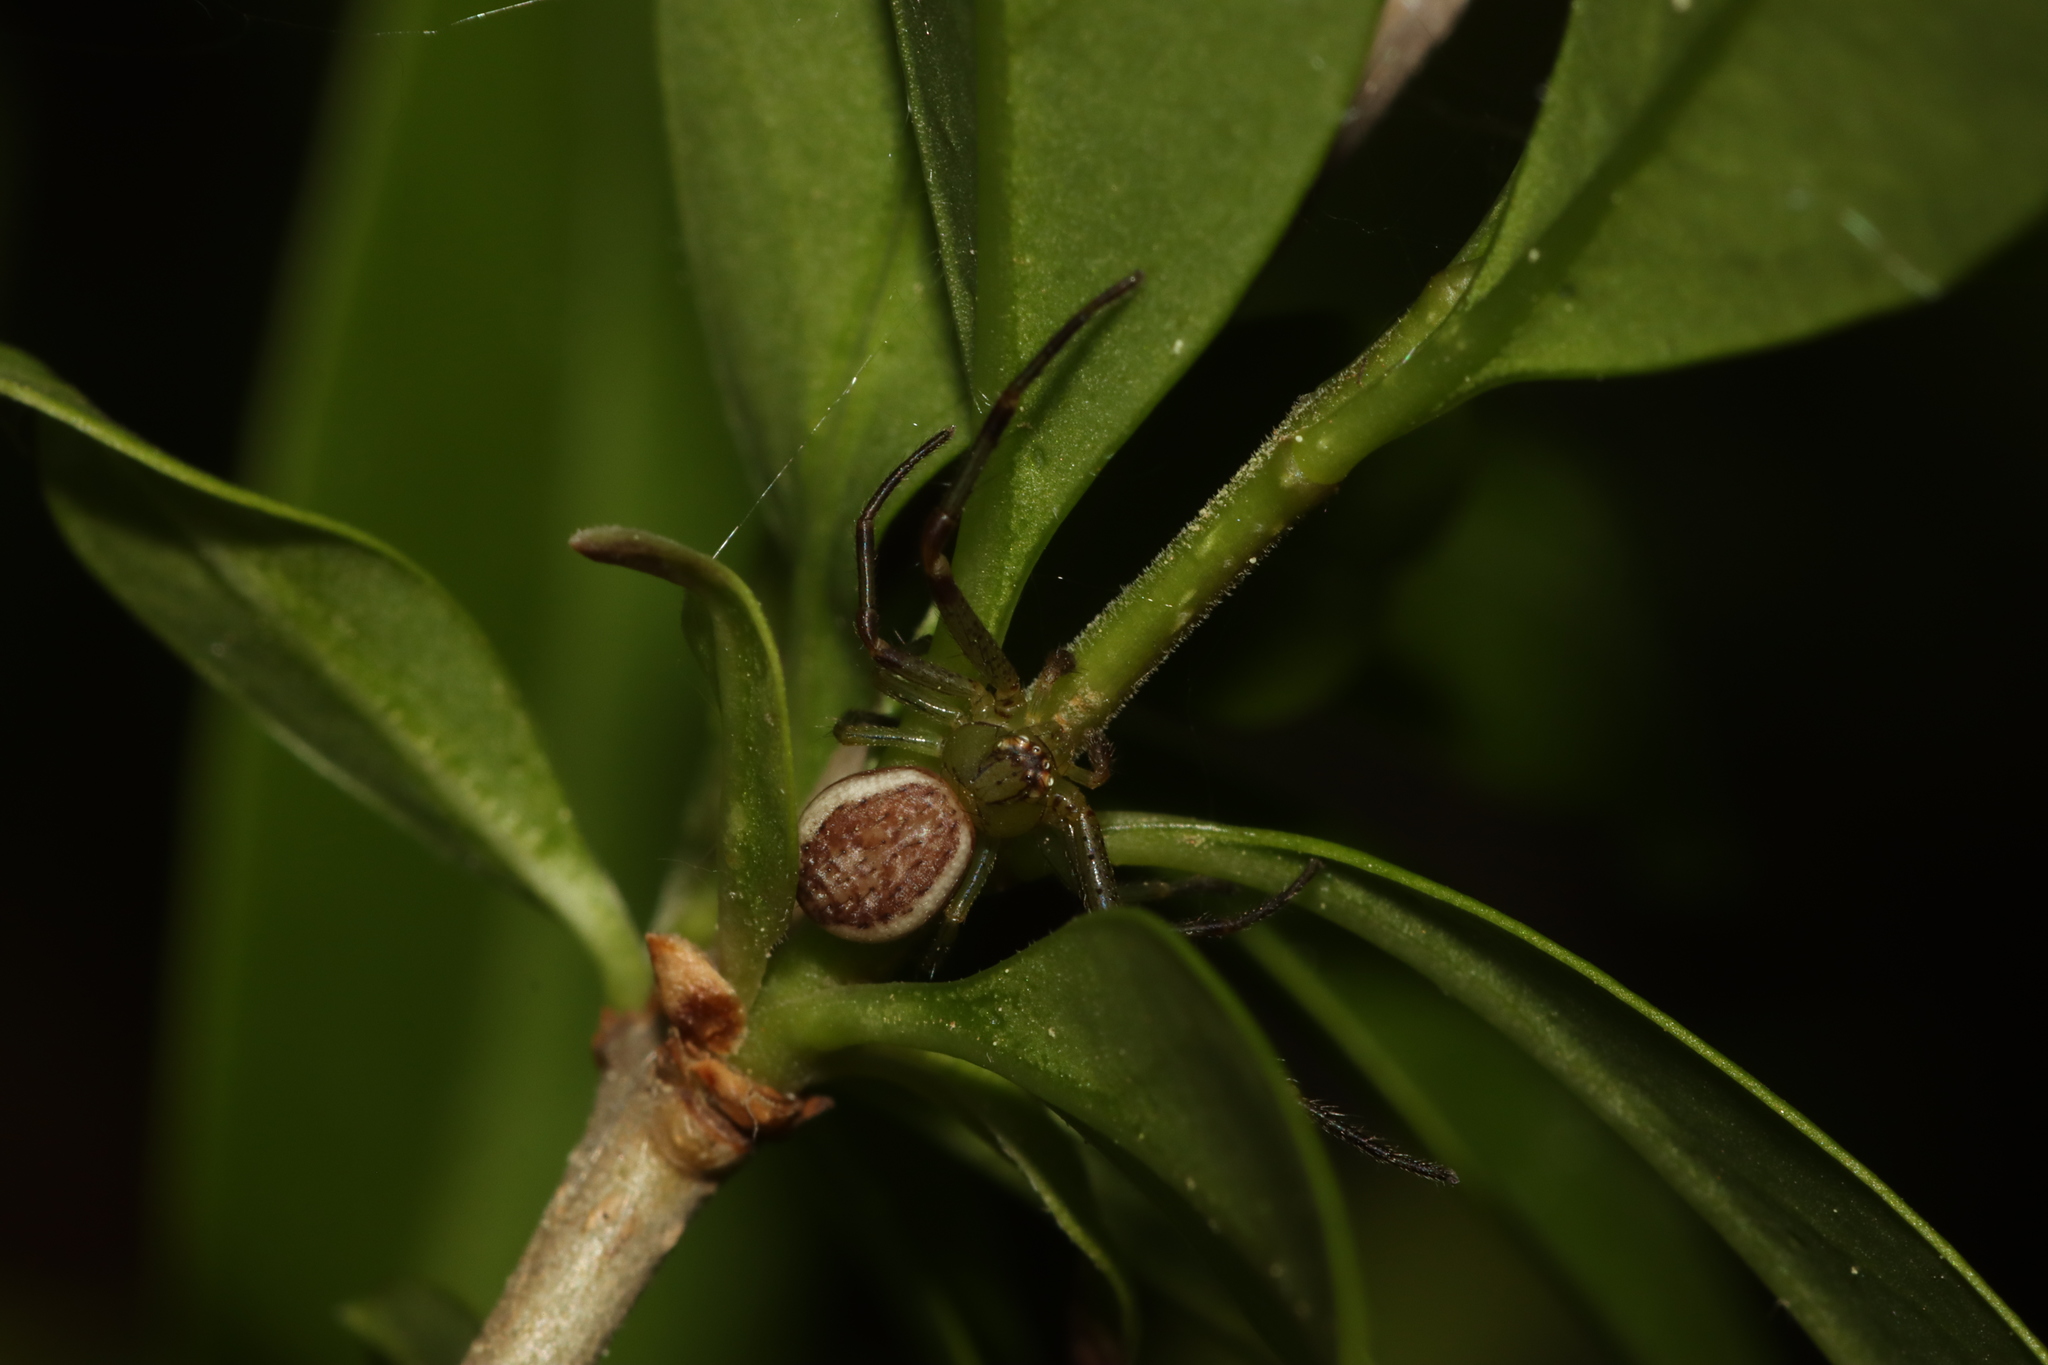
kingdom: Animalia
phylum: Arthropoda
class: Arachnida
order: Araneae
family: Thomisidae
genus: Diaea
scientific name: Diaea dorsata
